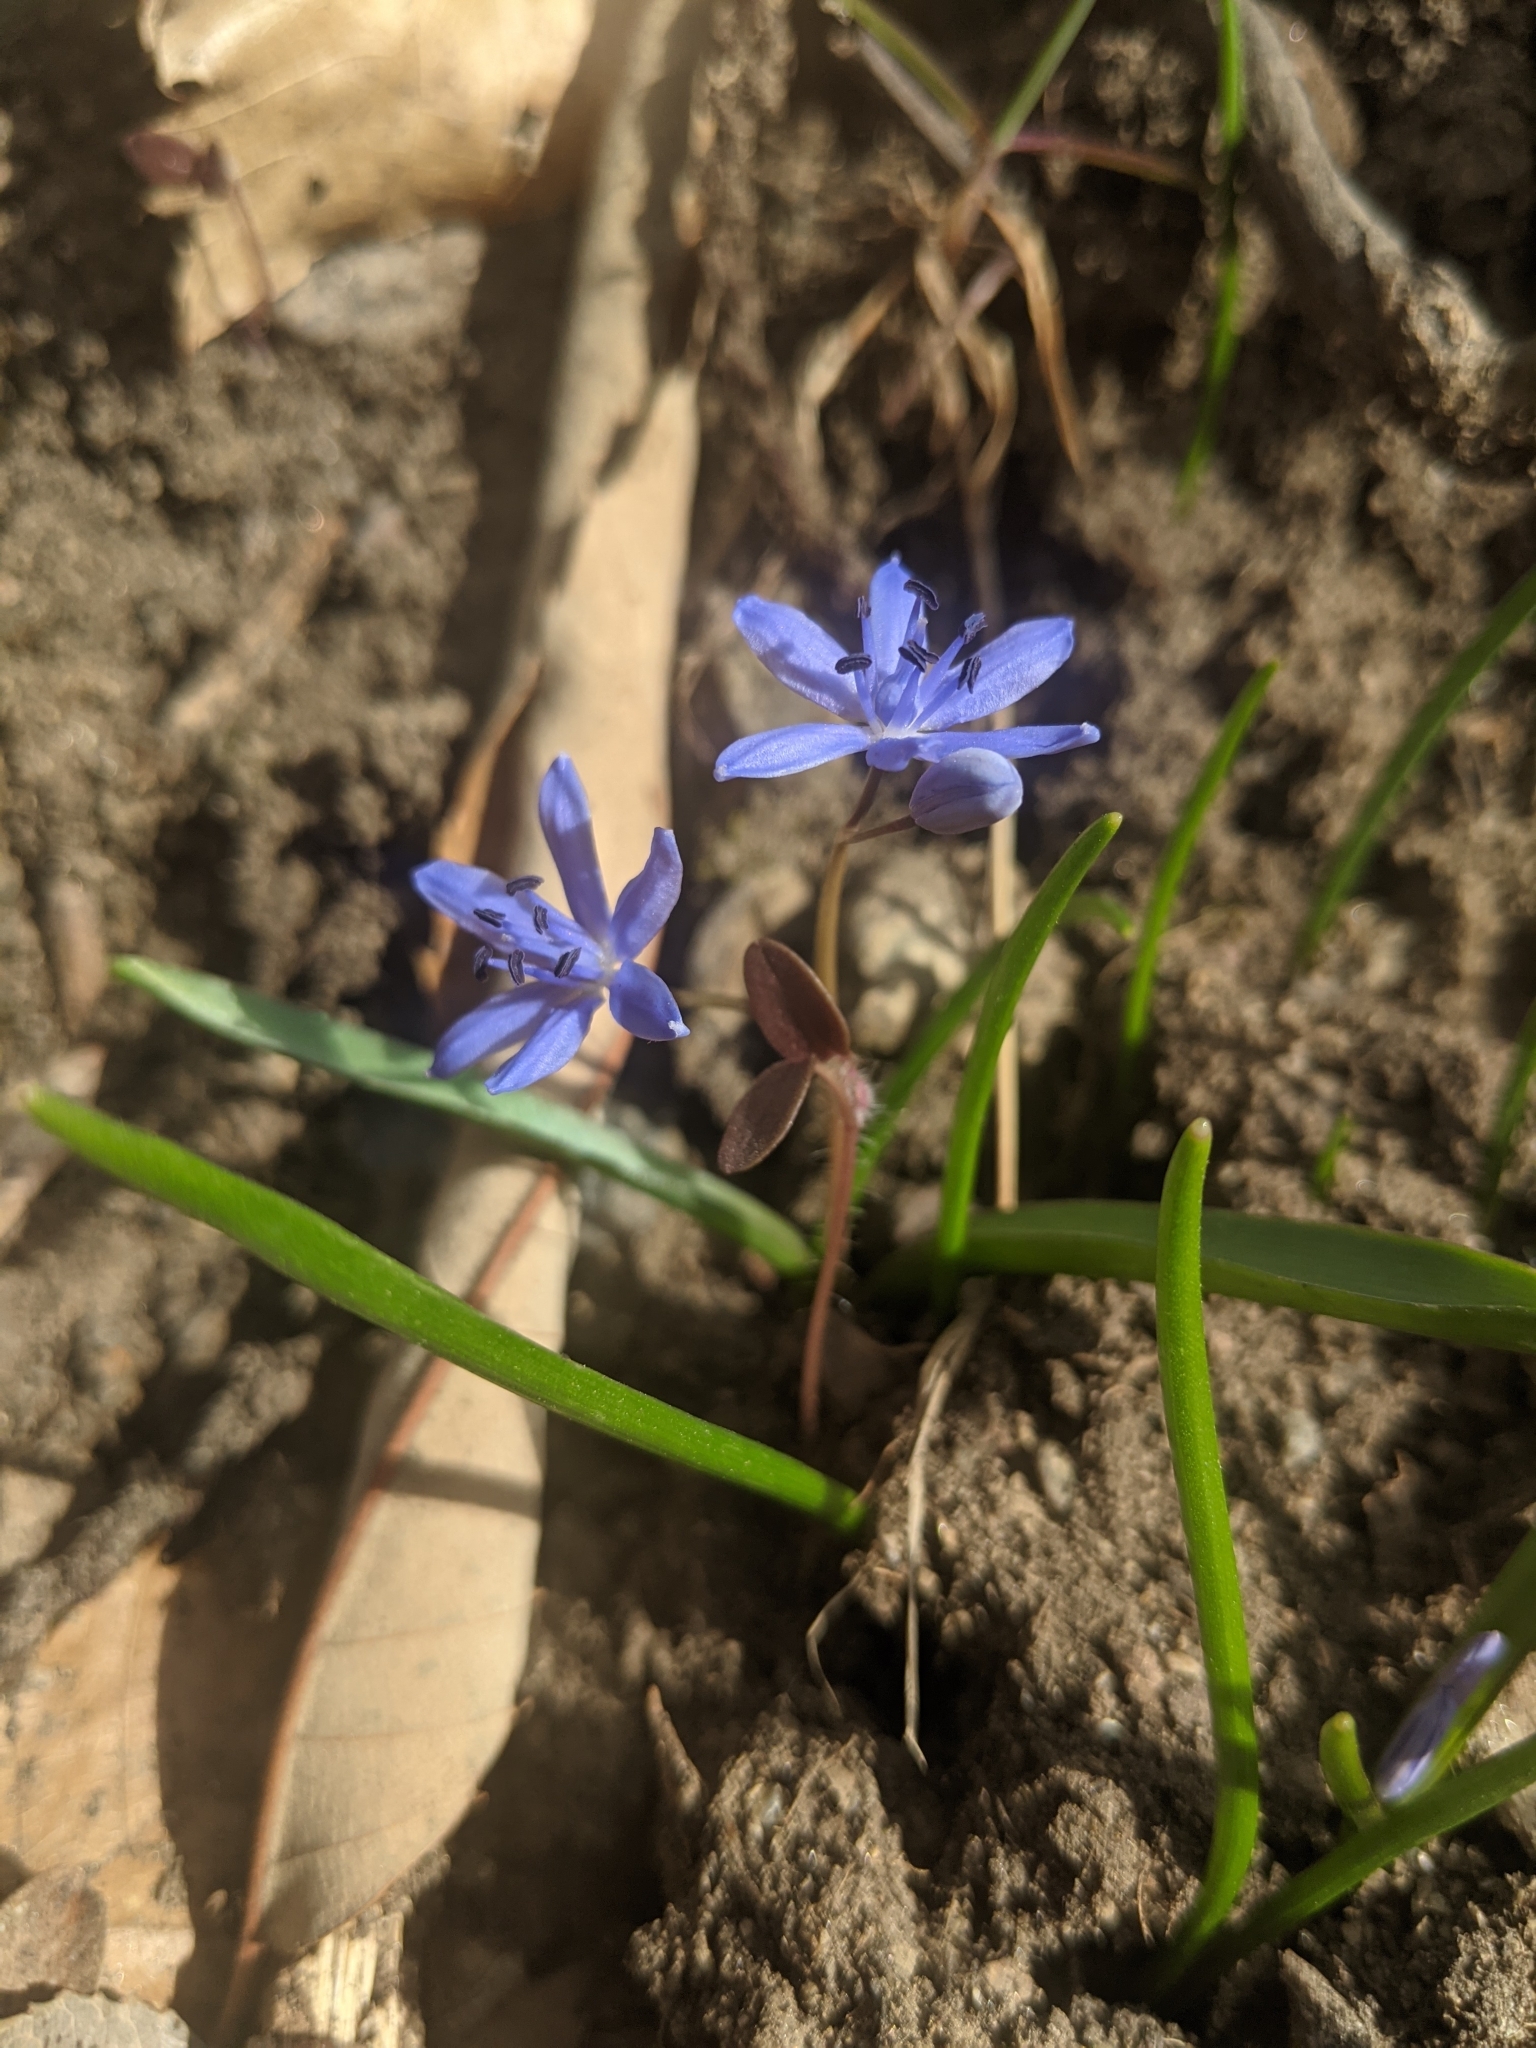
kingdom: Plantae
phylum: Tracheophyta
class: Liliopsida
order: Asparagales
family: Asparagaceae
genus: Scilla
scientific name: Scilla bifolia
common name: Alpine squill
